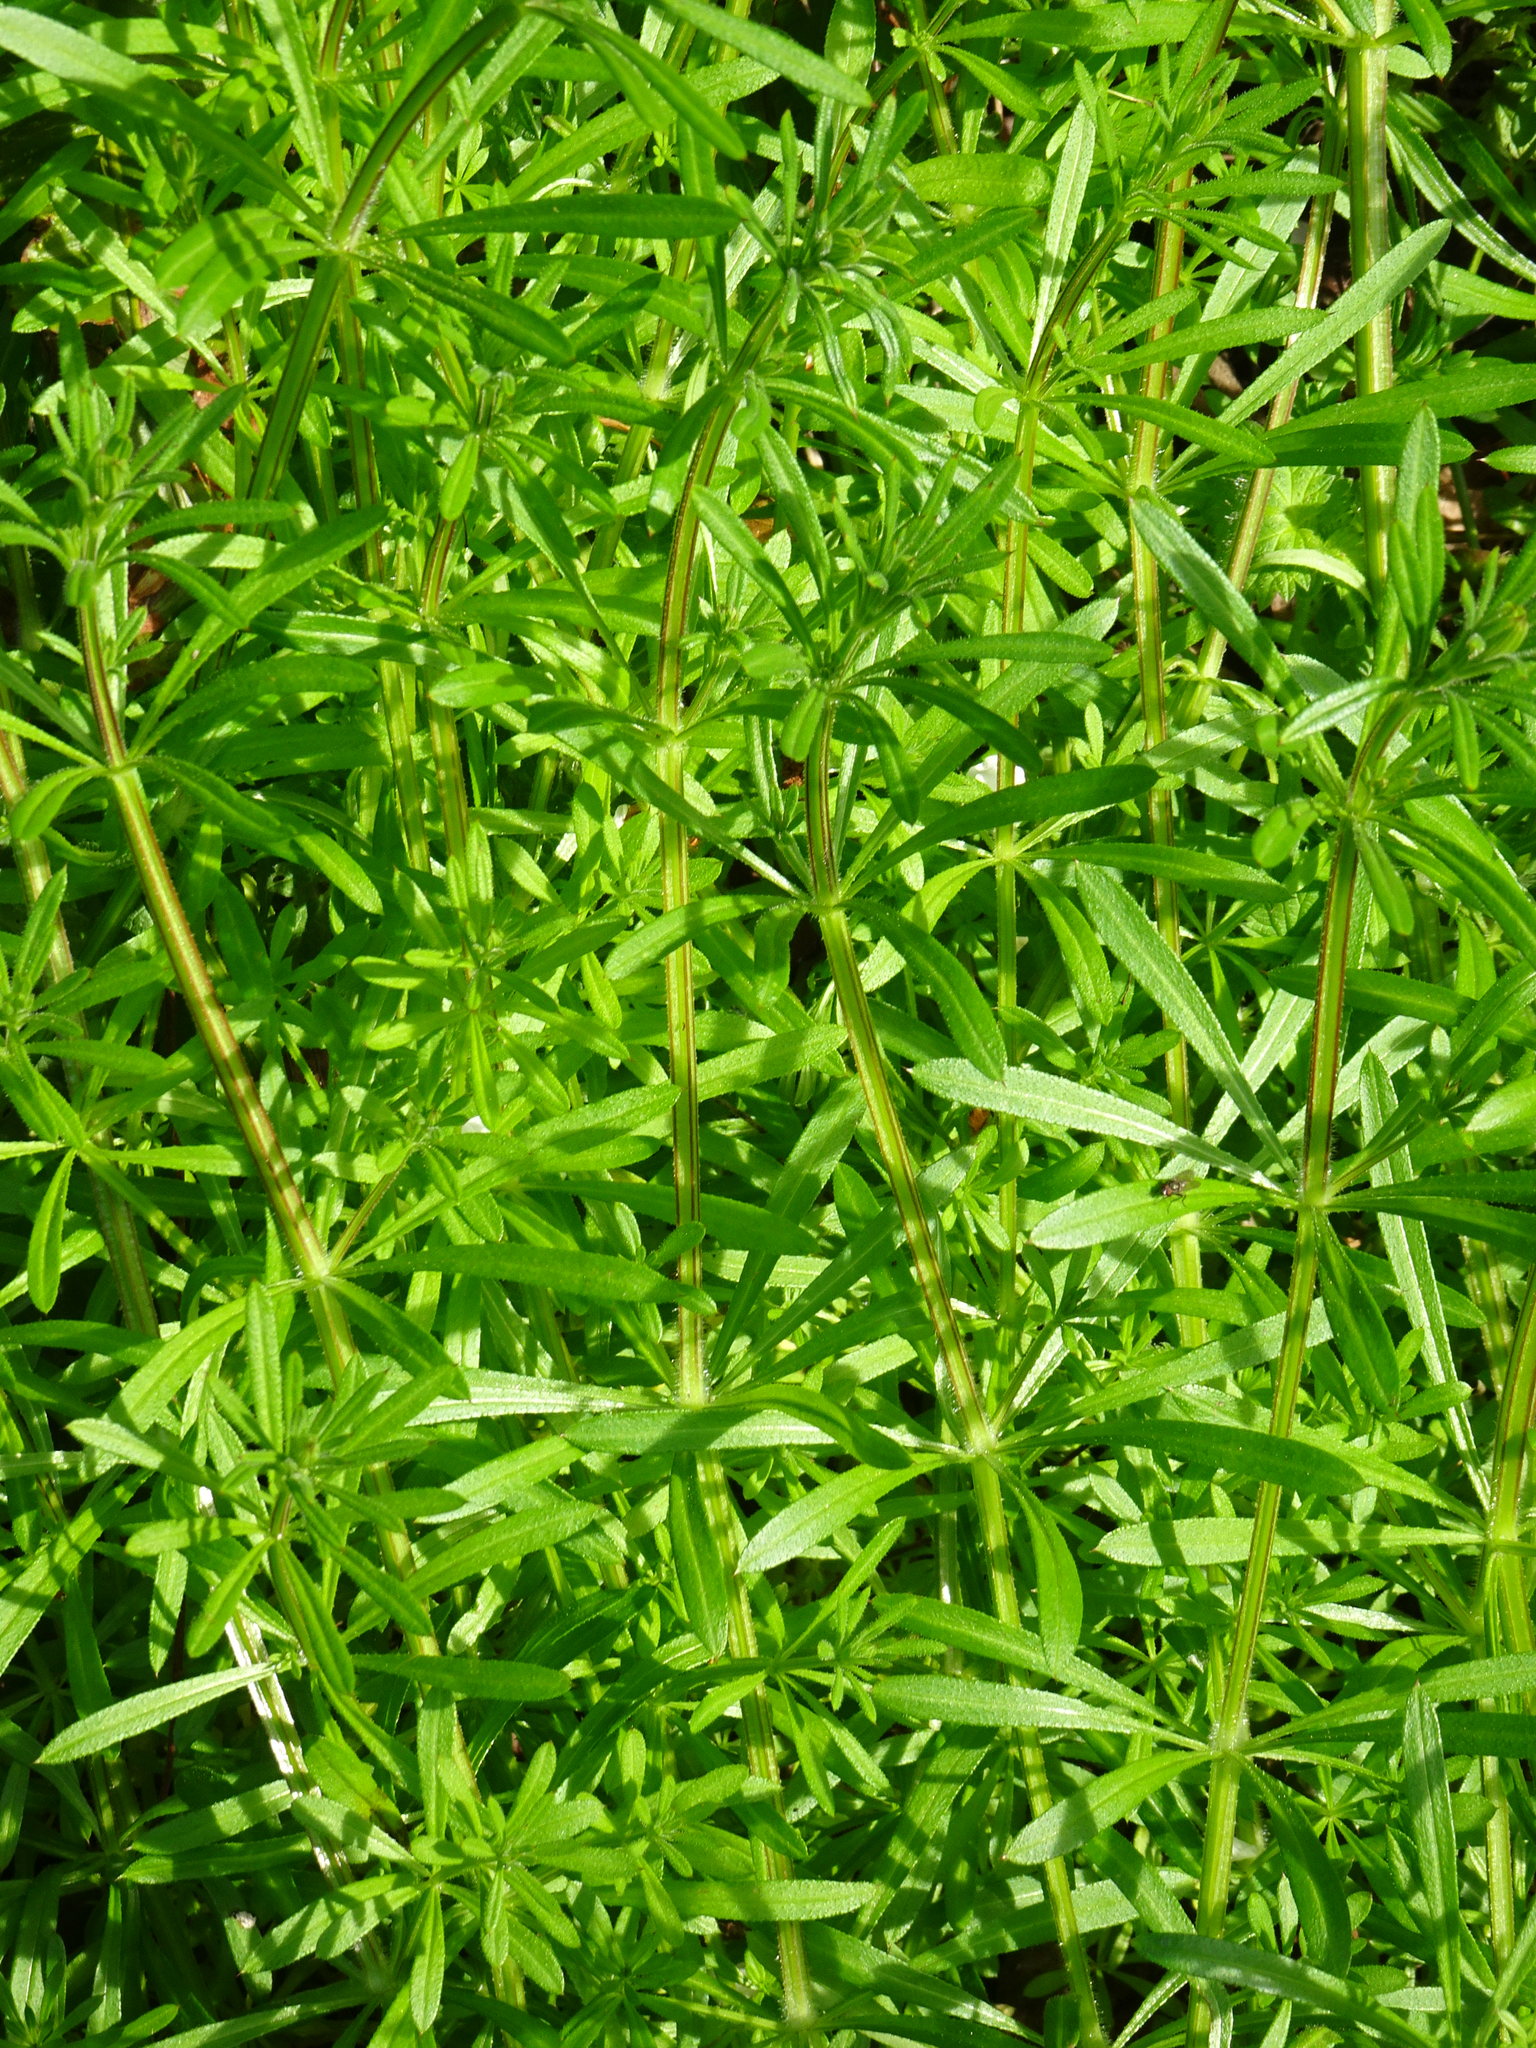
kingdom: Plantae
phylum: Tracheophyta
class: Magnoliopsida
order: Gentianales
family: Rubiaceae
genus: Galium
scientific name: Galium aparine
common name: Cleavers
